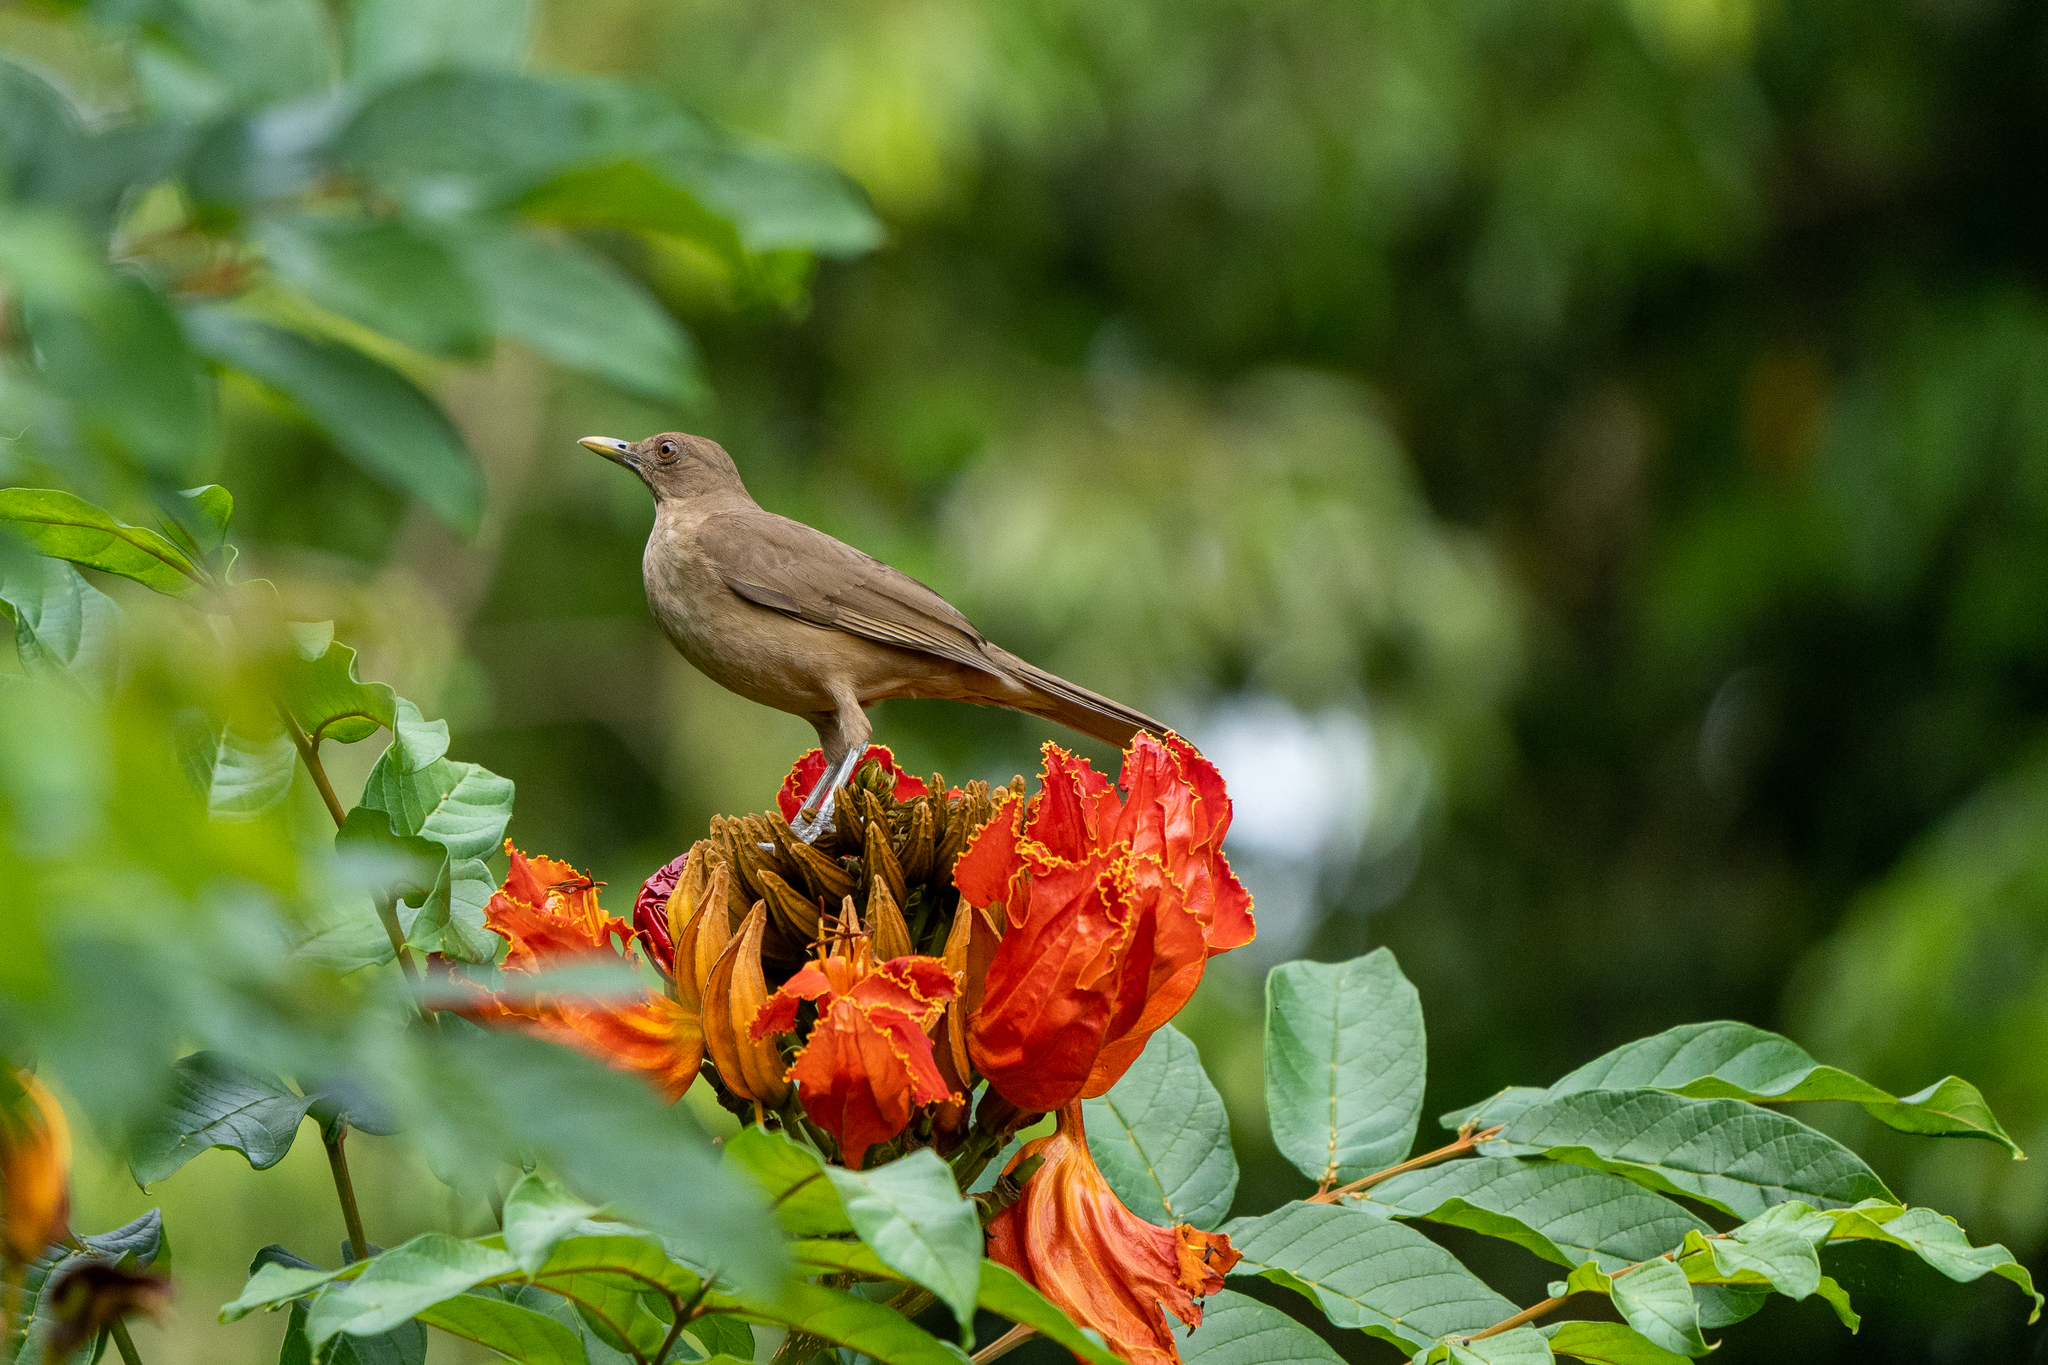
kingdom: Animalia
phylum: Chordata
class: Aves
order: Passeriformes
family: Turdidae
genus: Turdus
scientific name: Turdus grayi
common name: Clay-colored thrush
